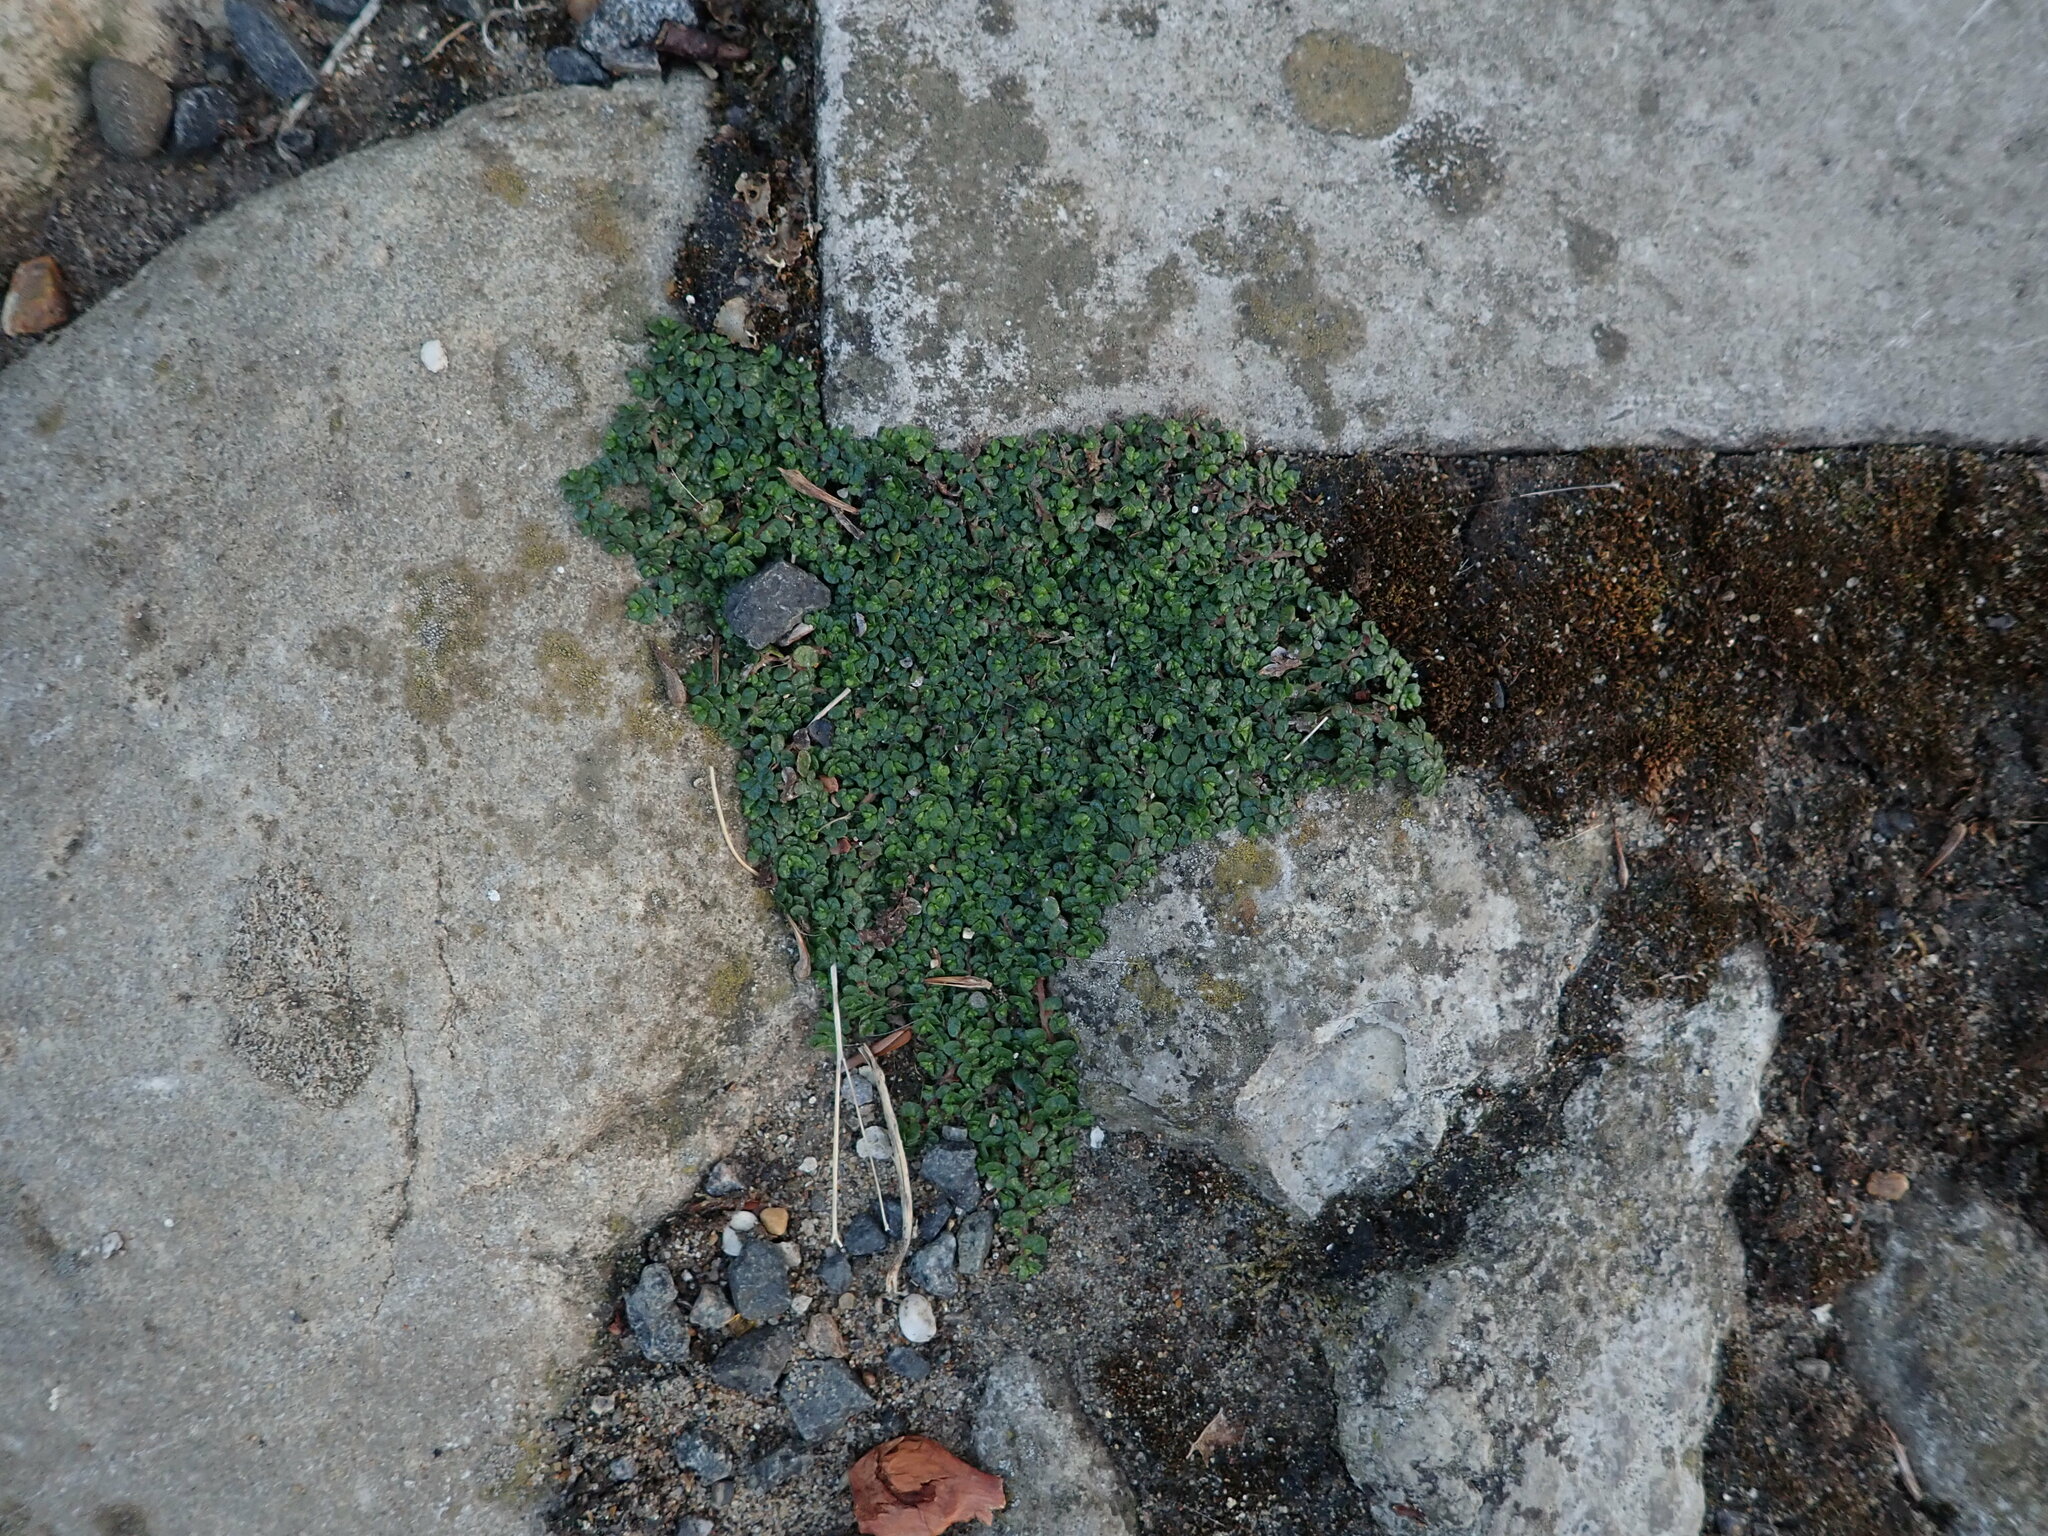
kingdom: Plantae
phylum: Tracheophyta
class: Magnoliopsida
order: Rosales
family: Urticaceae
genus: Soleirolia
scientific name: Soleirolia soleirolii
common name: Mind-your-own-business
